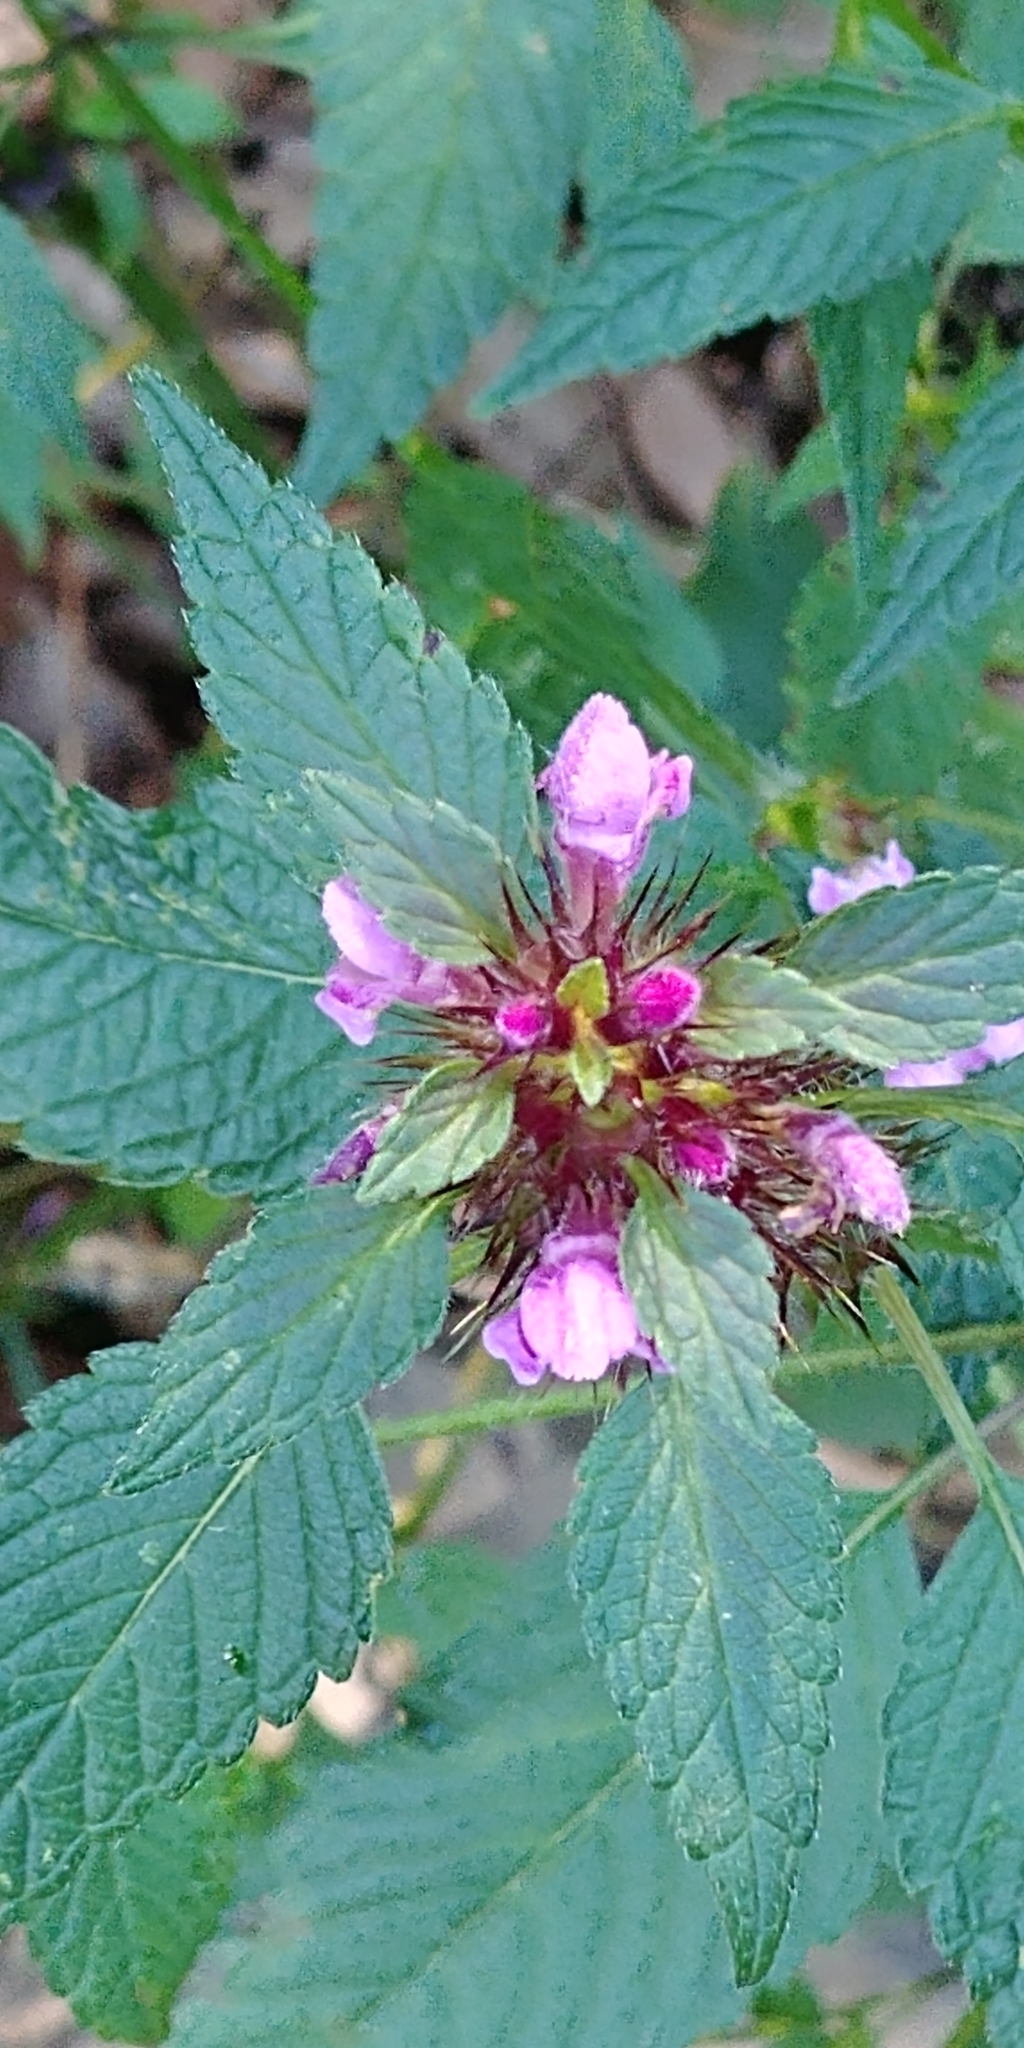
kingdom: Plantae
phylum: Tracheophyta
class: Magnoliopsida
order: Lamiales
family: Lamiaceae
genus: Galeopsis
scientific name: Galeopsis tetrahit
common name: Common hemp-nettle
